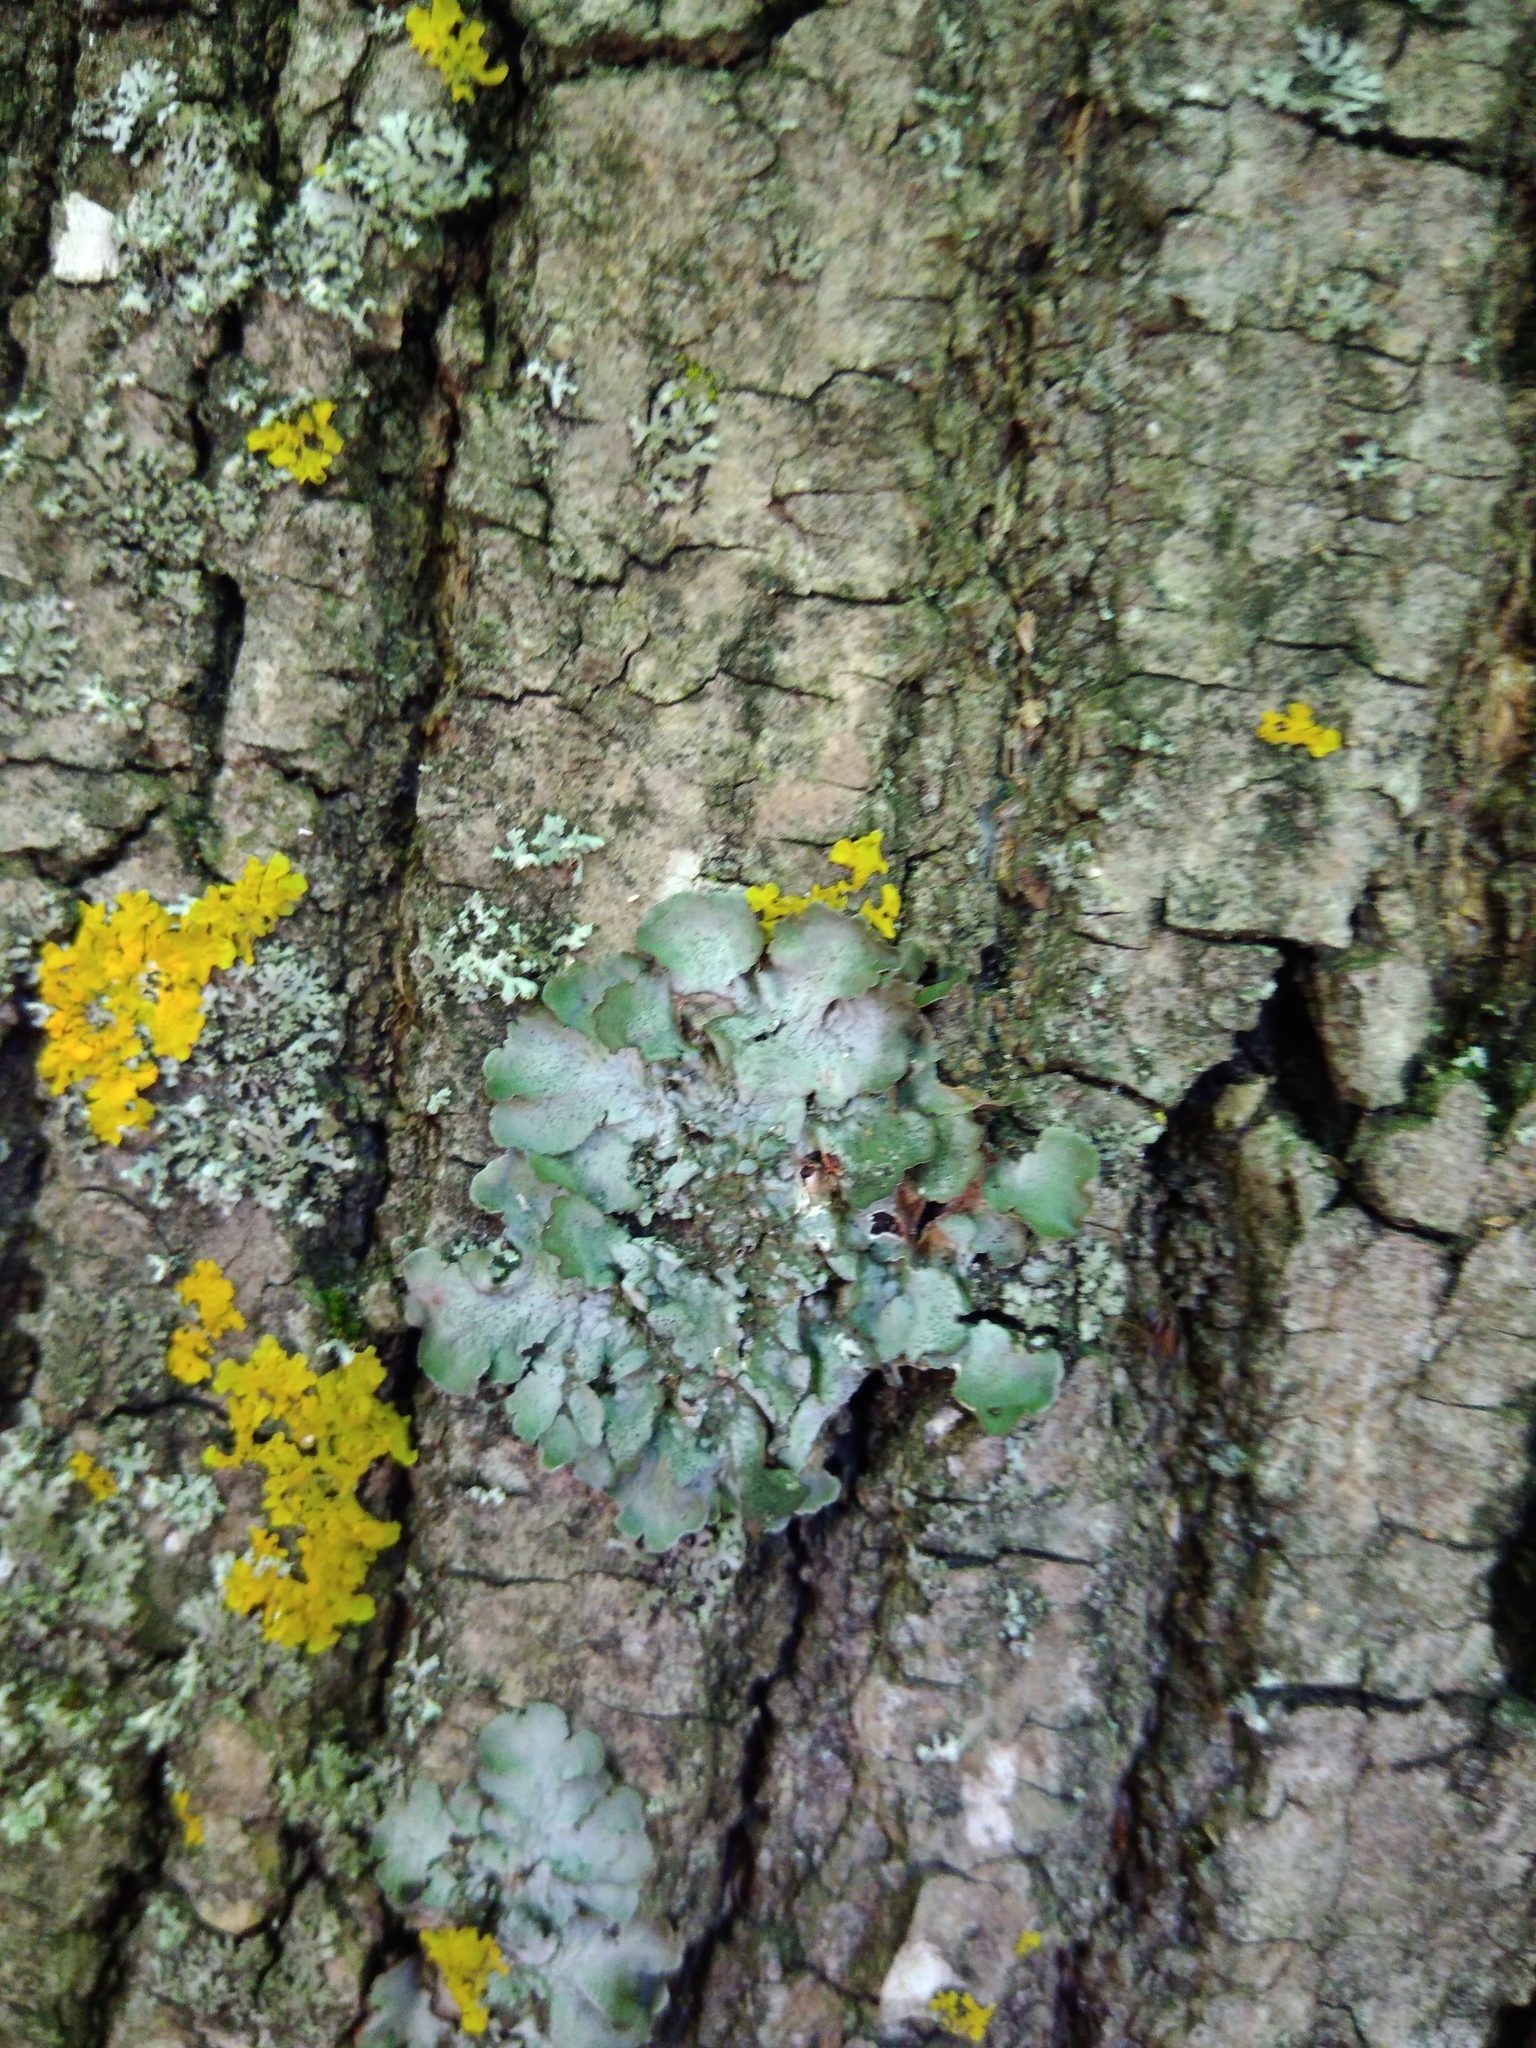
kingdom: Fungi
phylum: Ascomycota
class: Lecanoromycetes
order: Lecanorales
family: Parmeliaceae
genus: Pleurosticta
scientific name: Pleurosticta acetabulum
